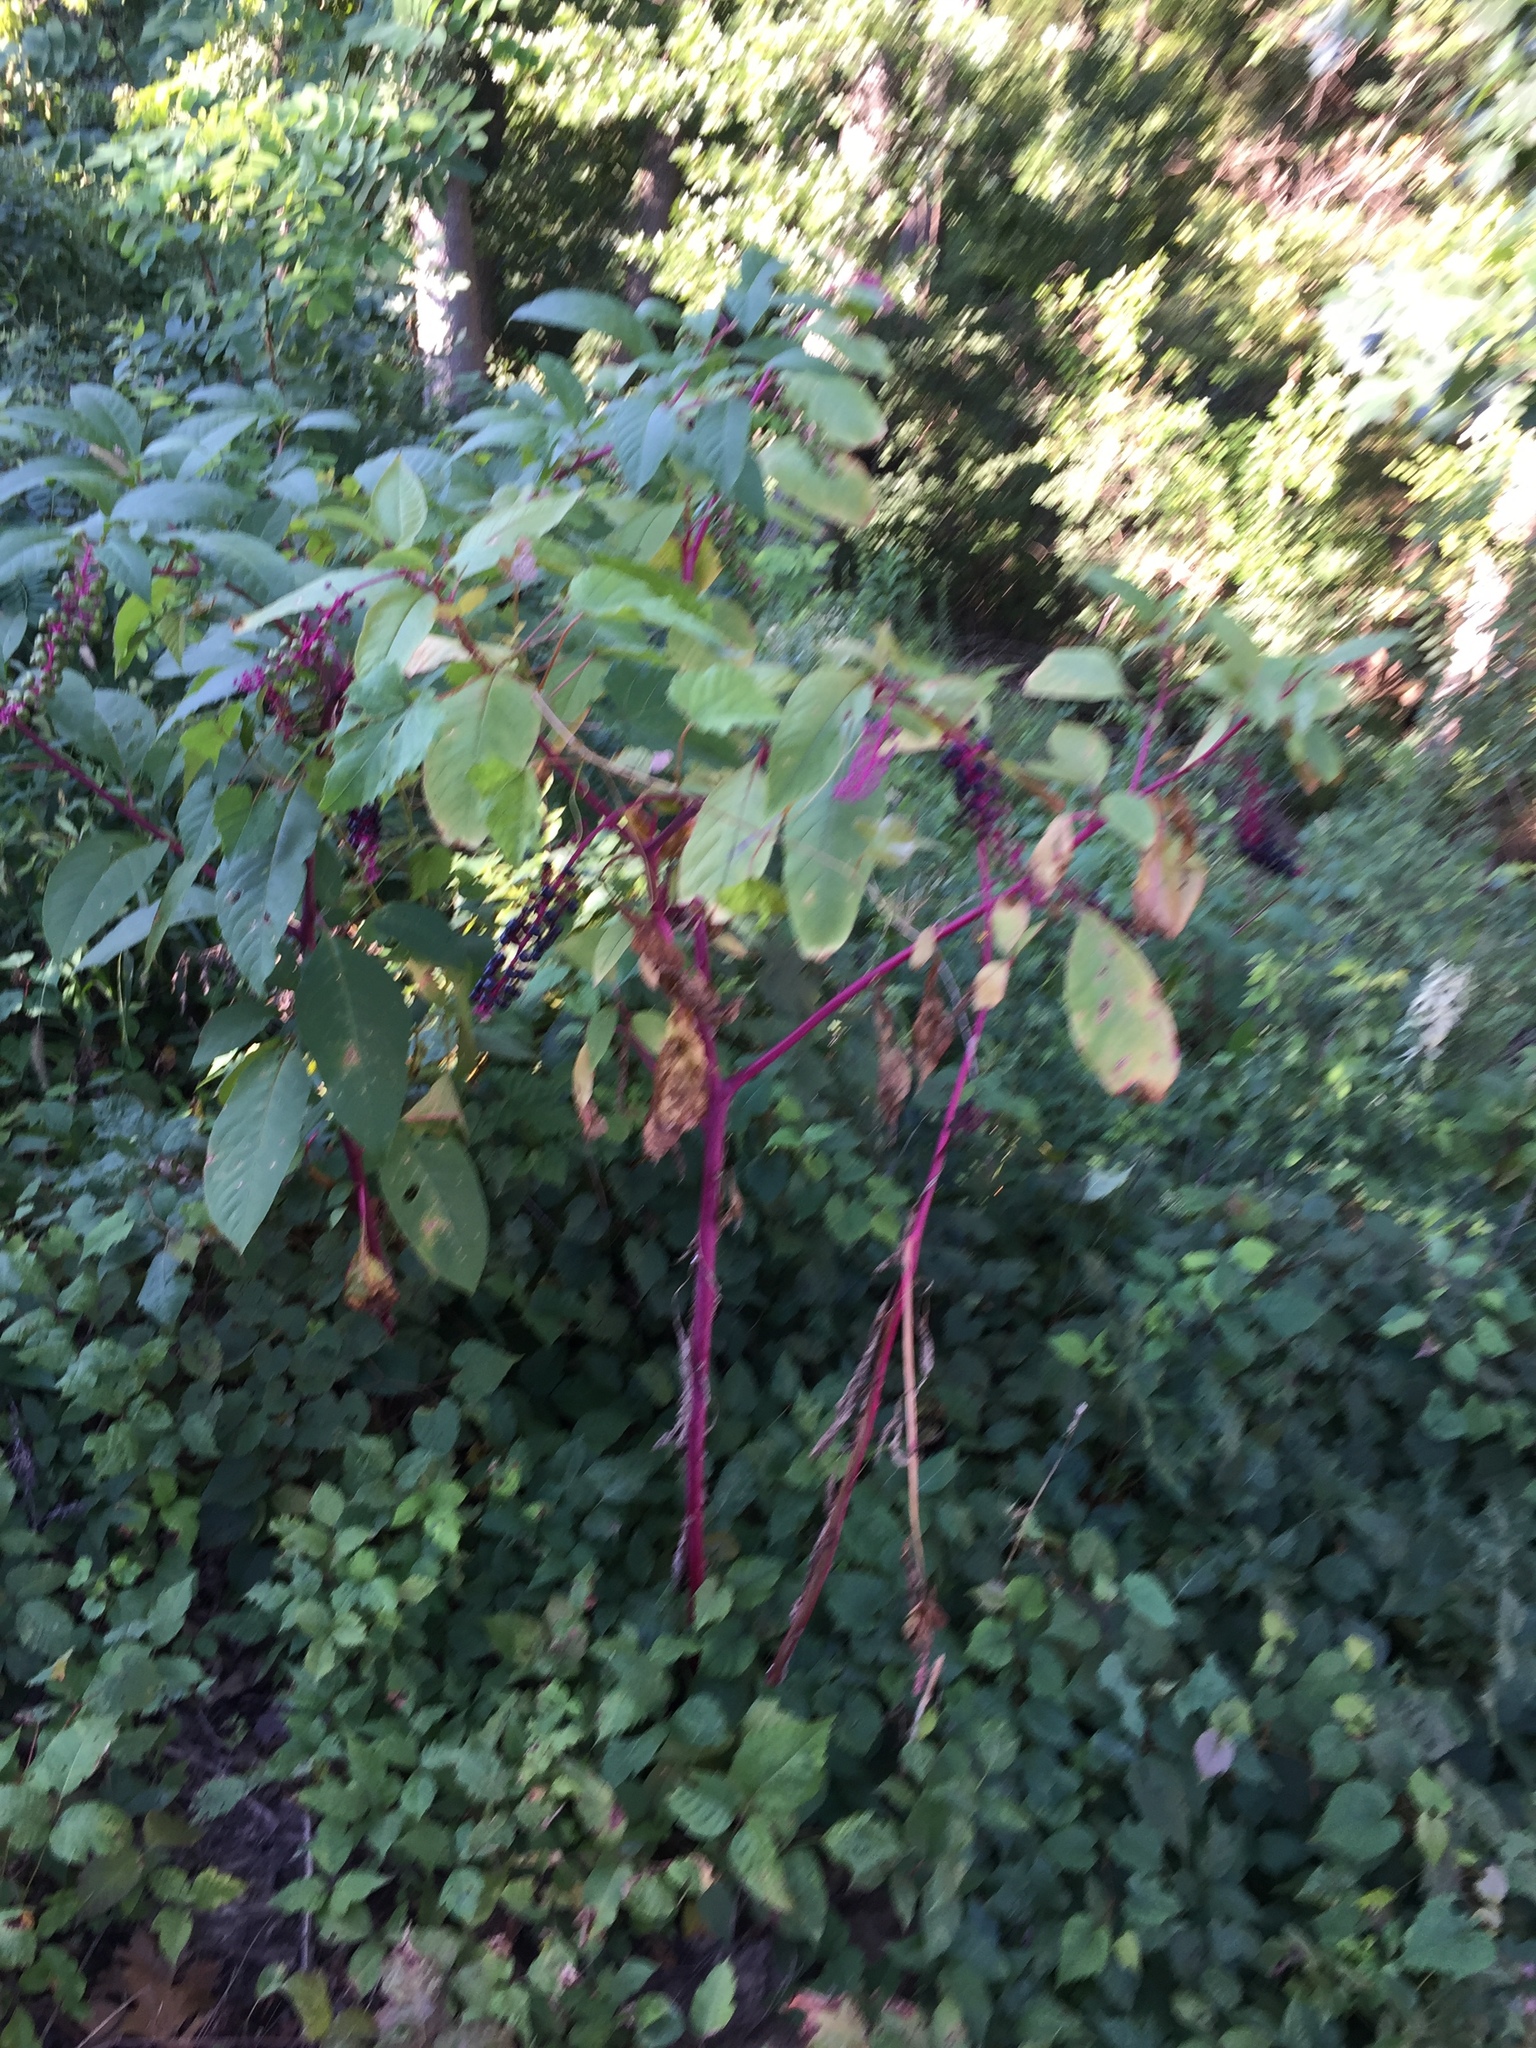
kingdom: Plantae
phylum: Tracheophyta
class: Magnoliopsida
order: Caryophyllales
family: Phytolaccaceae
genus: Phytolacca
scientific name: Phytolacca americana
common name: American pokeweed
